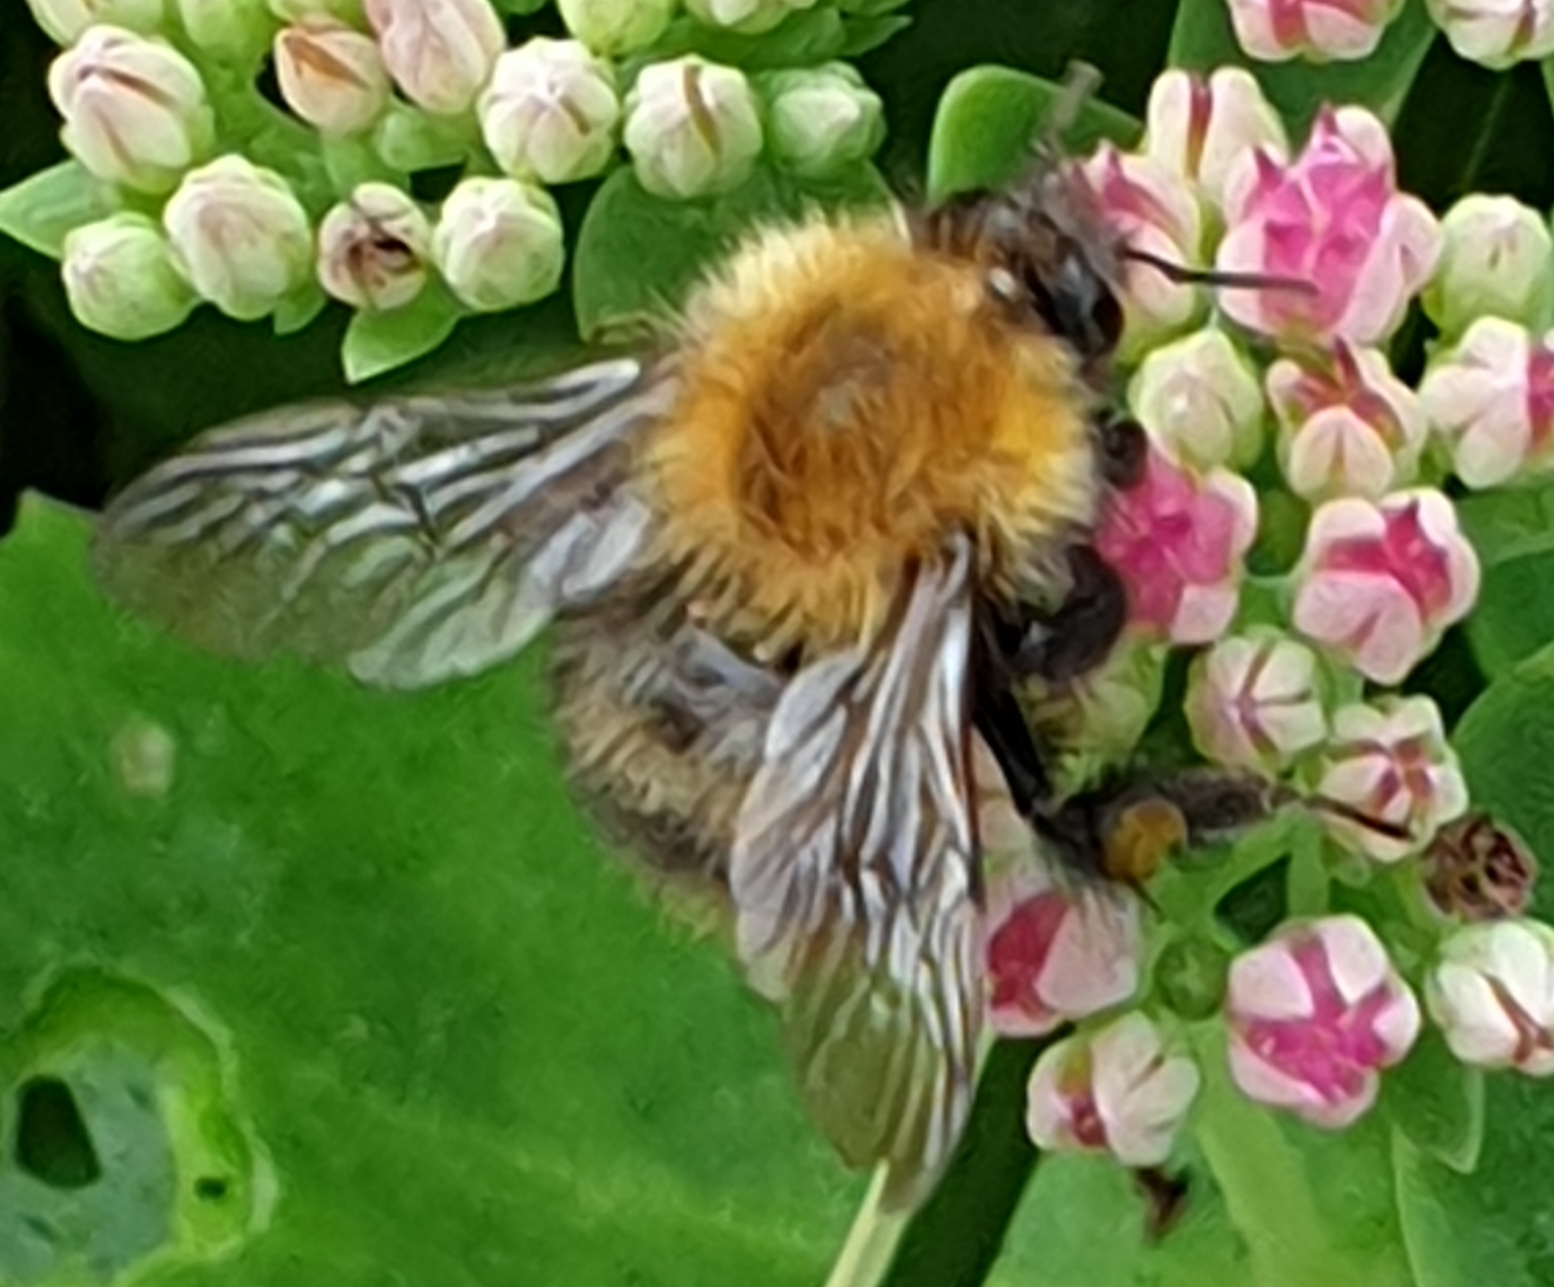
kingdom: Animalia
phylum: Arthropoda
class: Insecta
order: Hymenoptera
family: Apidae
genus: Bombus
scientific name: Bombus pascuorum
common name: Common carder bee
